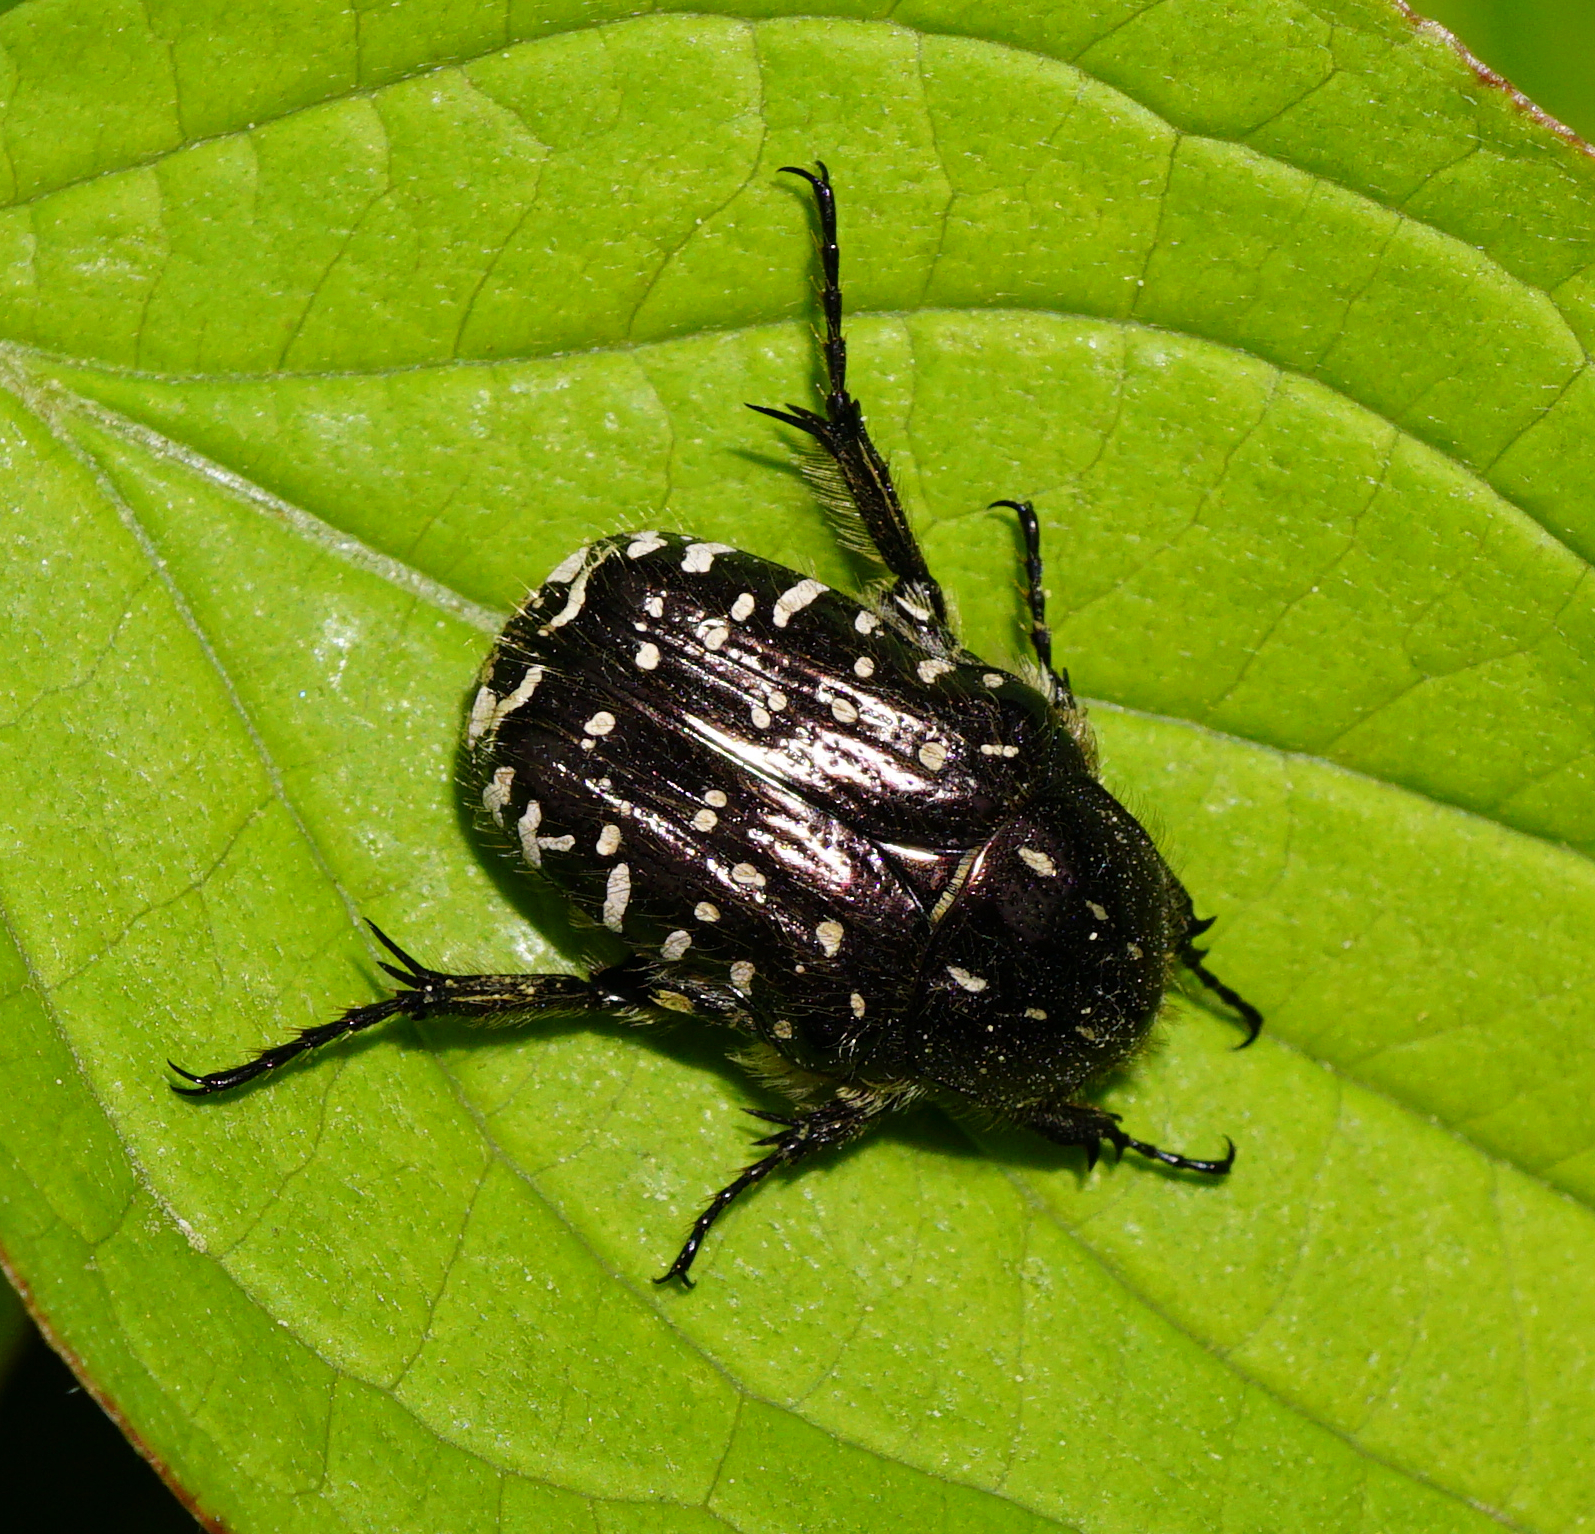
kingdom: Animalia
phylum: Arthropoda
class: Insecta
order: Coleoptera
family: Scarabaeidae
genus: Oxythyrea
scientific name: Oxythyrea funesta
